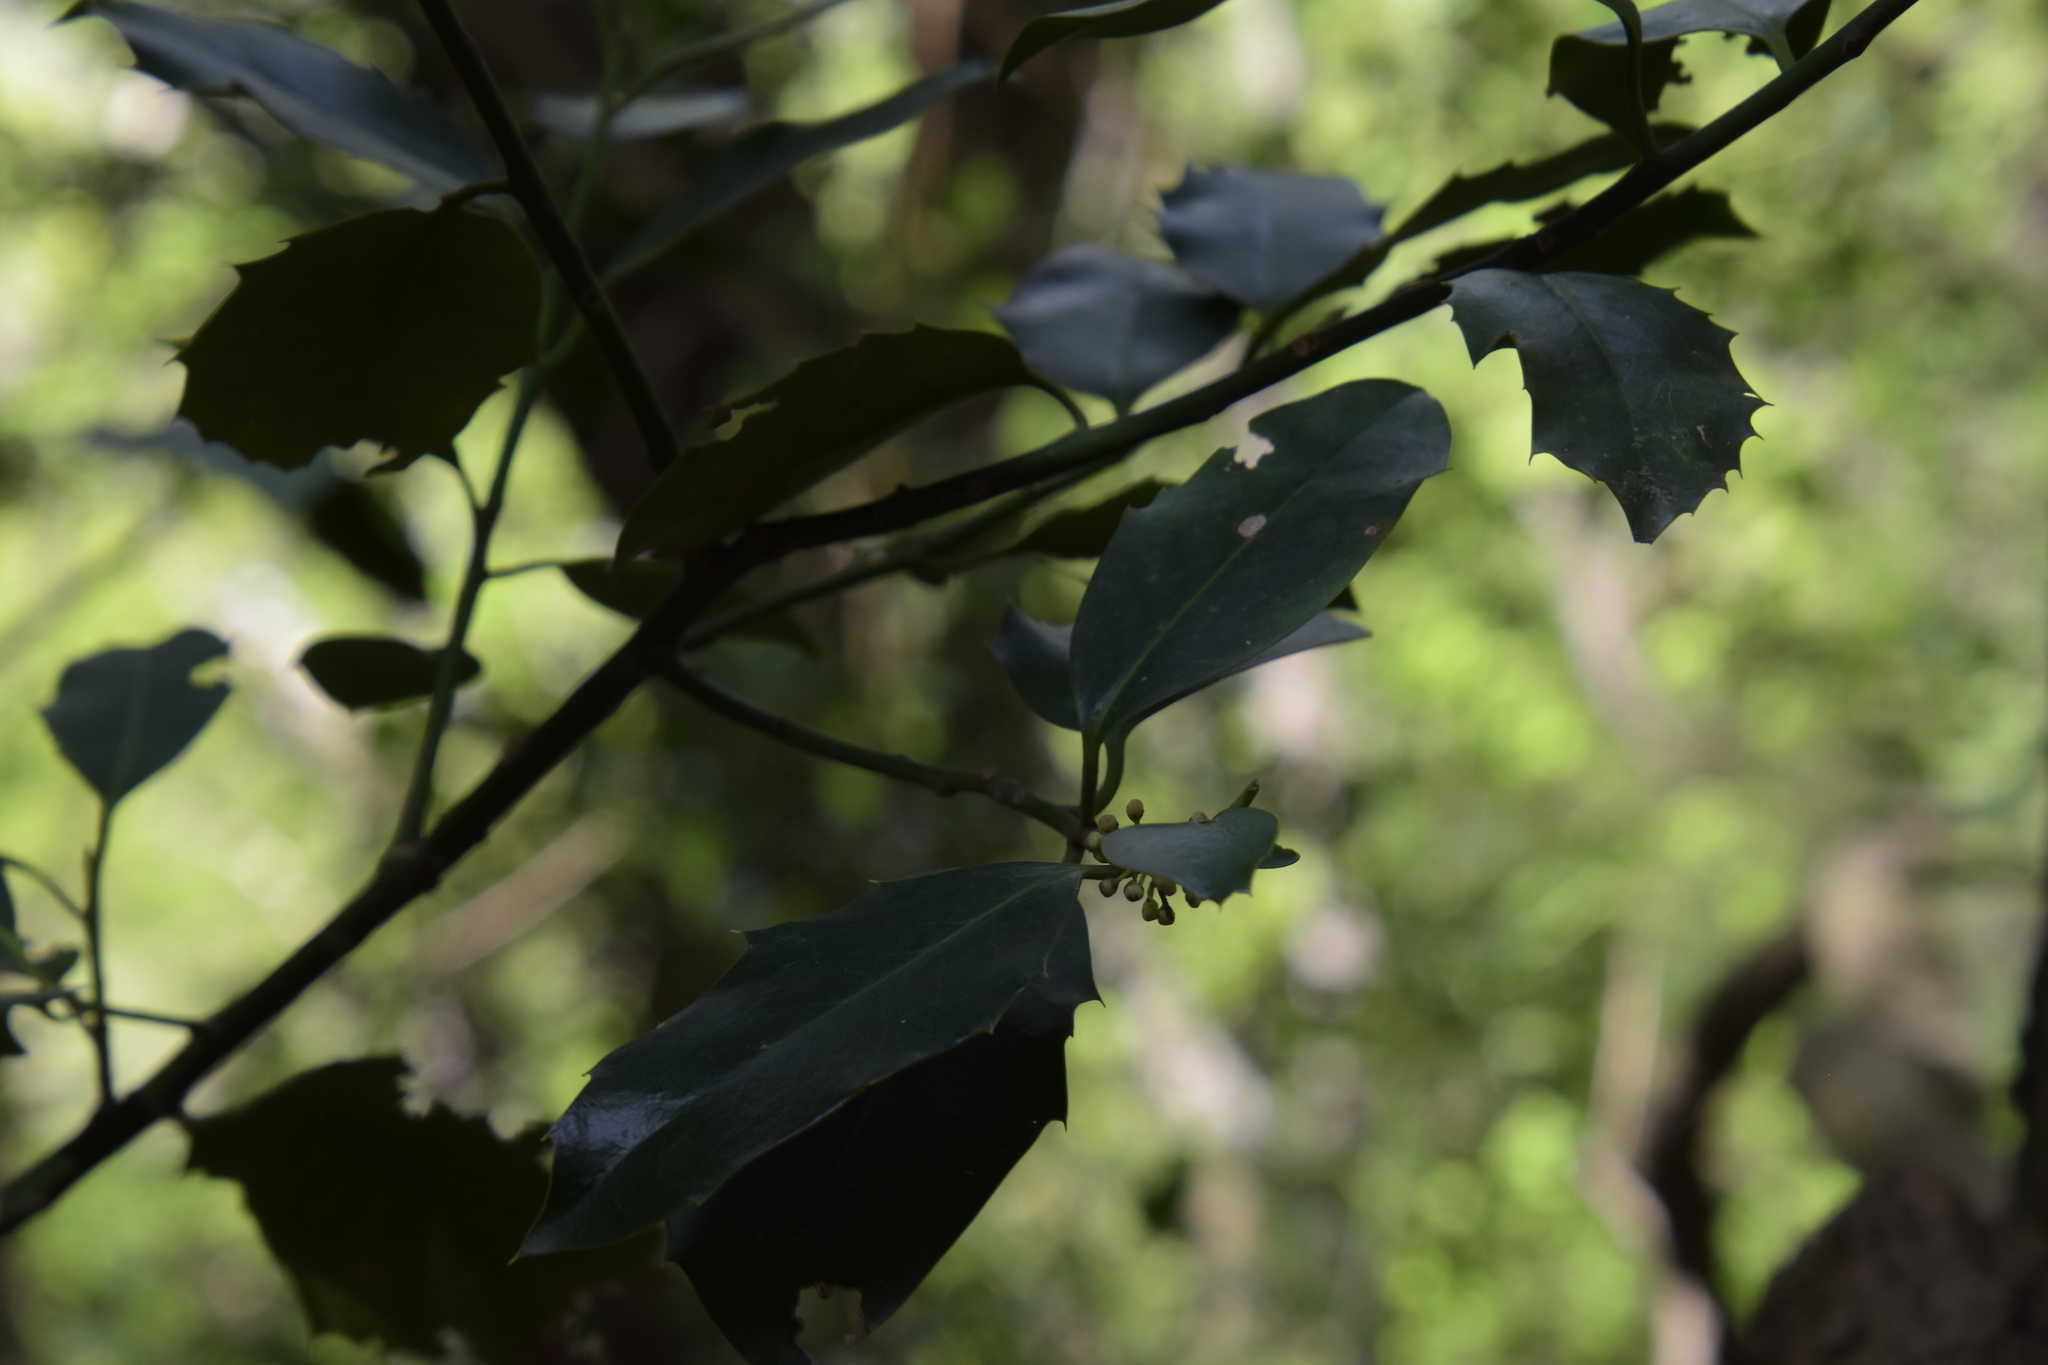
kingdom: Plantae
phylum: Tracheophyta
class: Magnoliopsida
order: Aquifoliales
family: Aquifoliaceae
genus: Ilex
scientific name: Ilex aquifolium
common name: English holly
